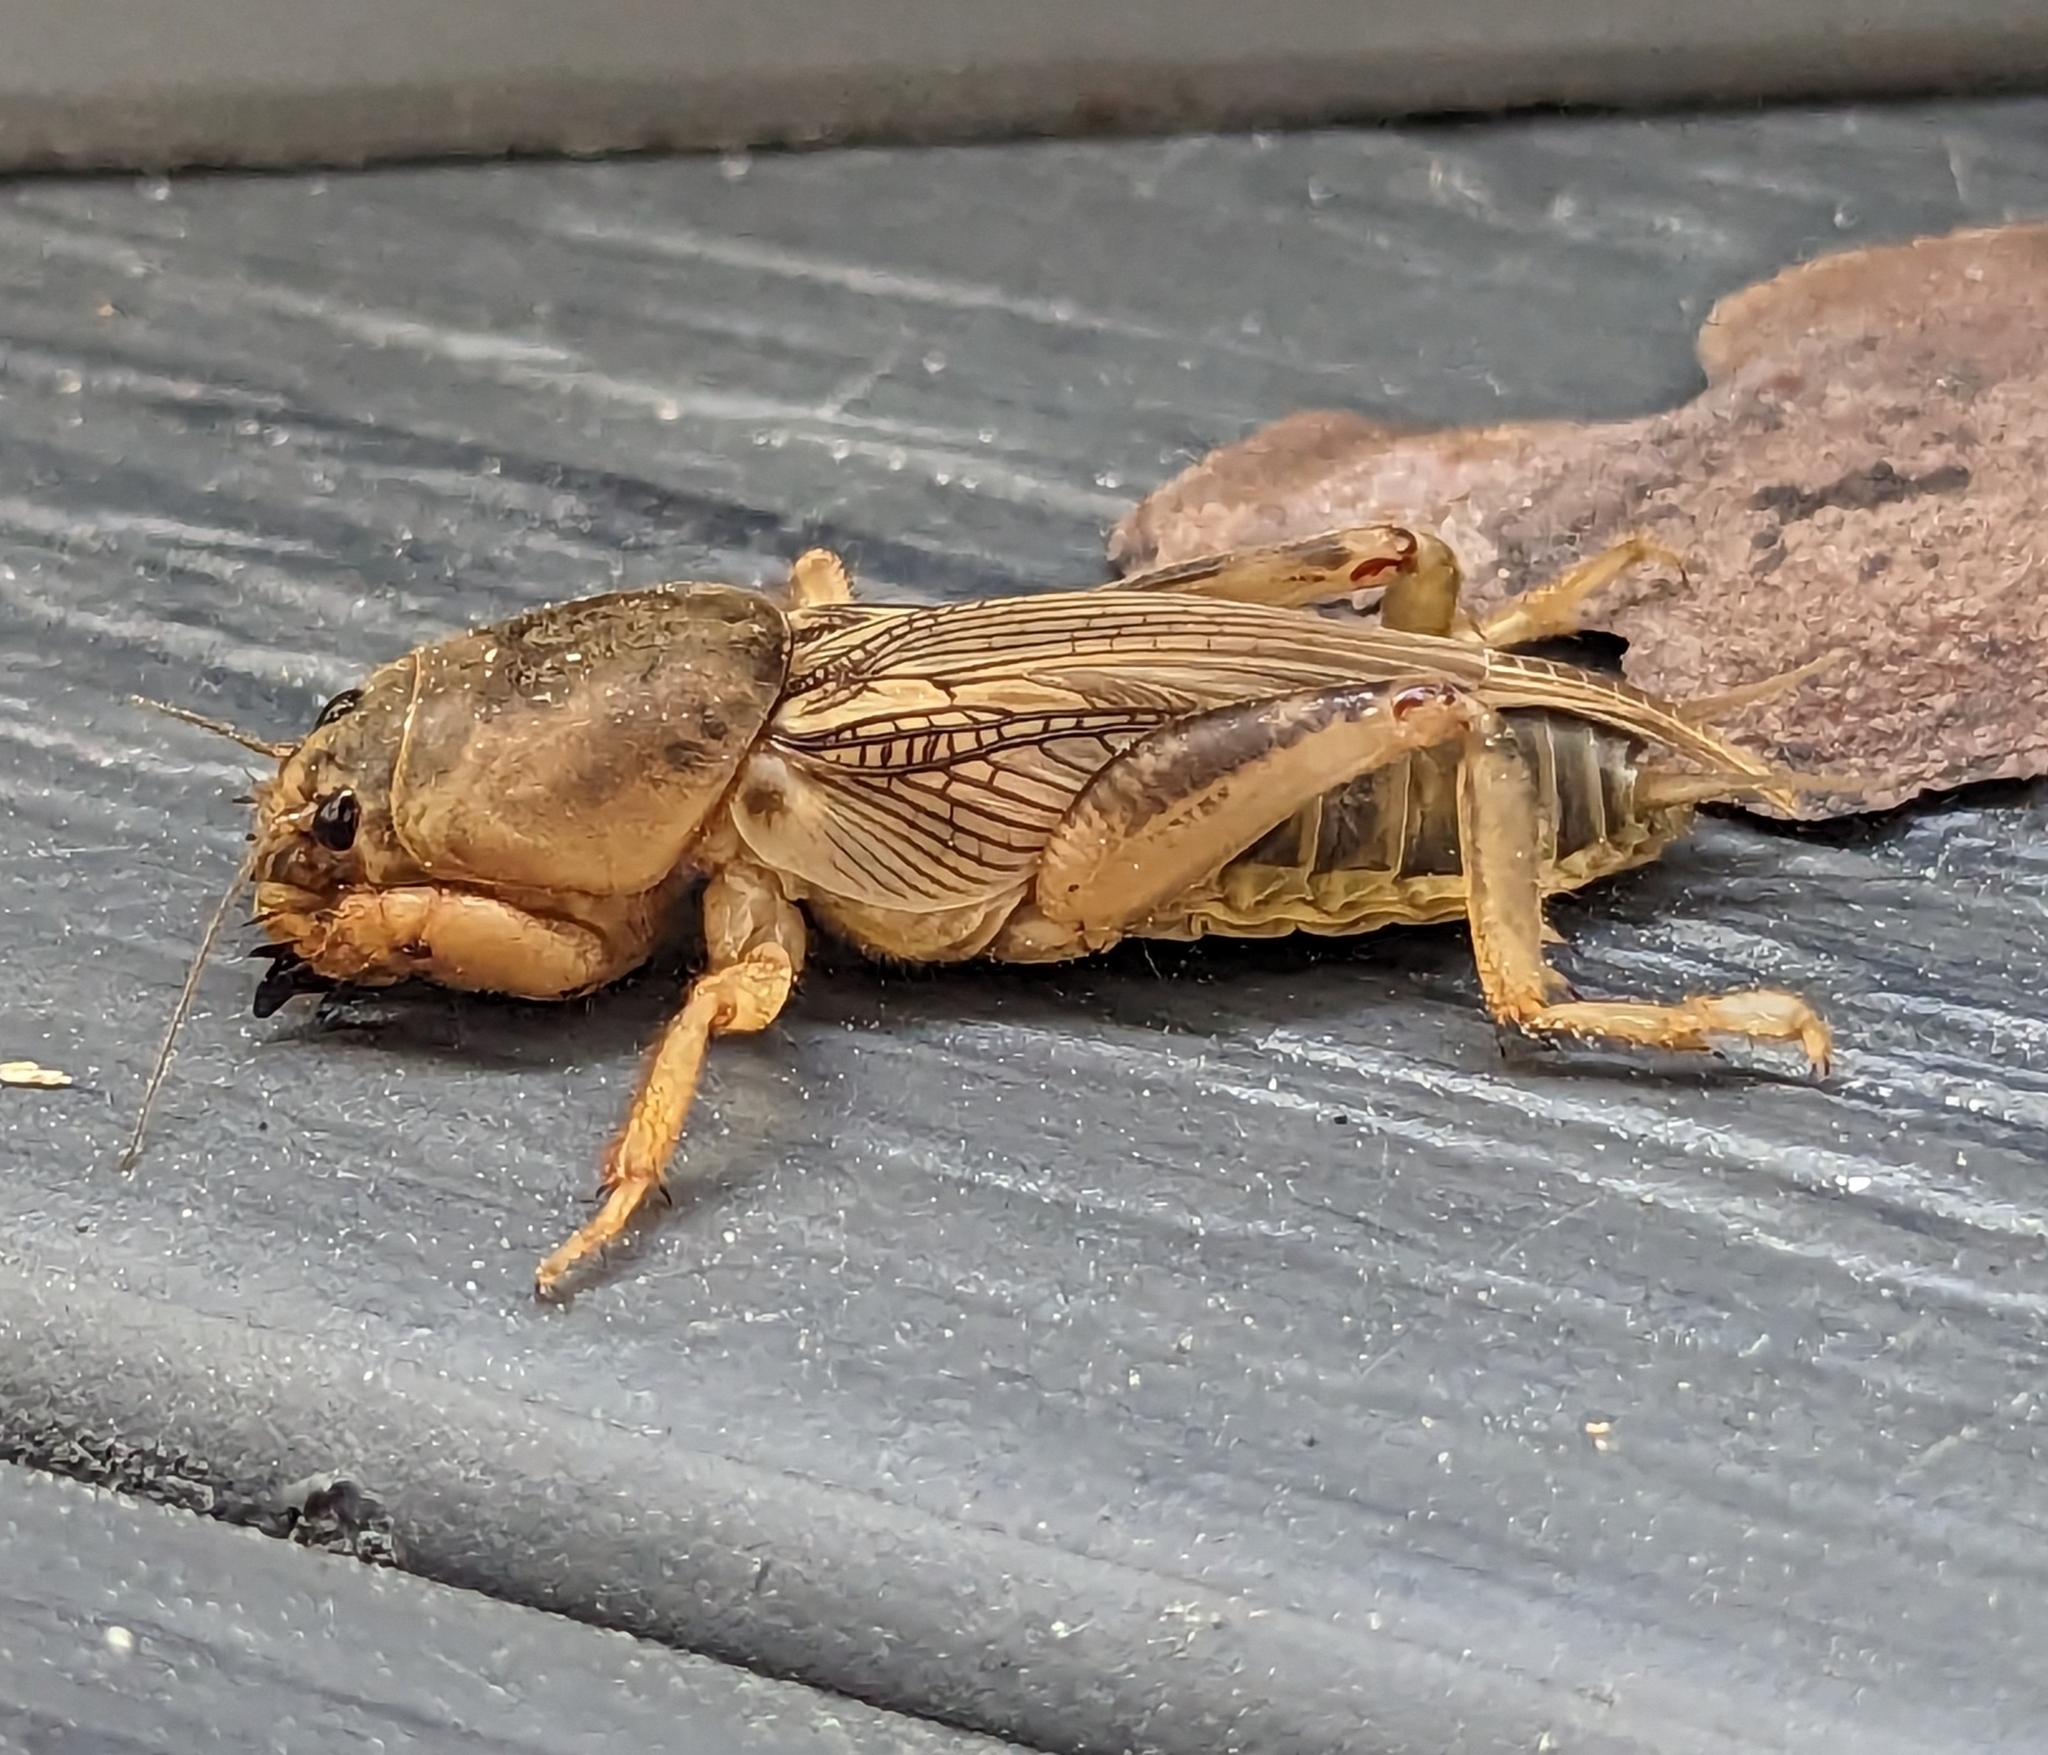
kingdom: Animalia
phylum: Arthropoda
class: Insecta
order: Orthoptera
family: Gryllotalpidae
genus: Neoscapteriscus
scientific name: Neoscapteriscus vicinus
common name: Tawny mole cricket
